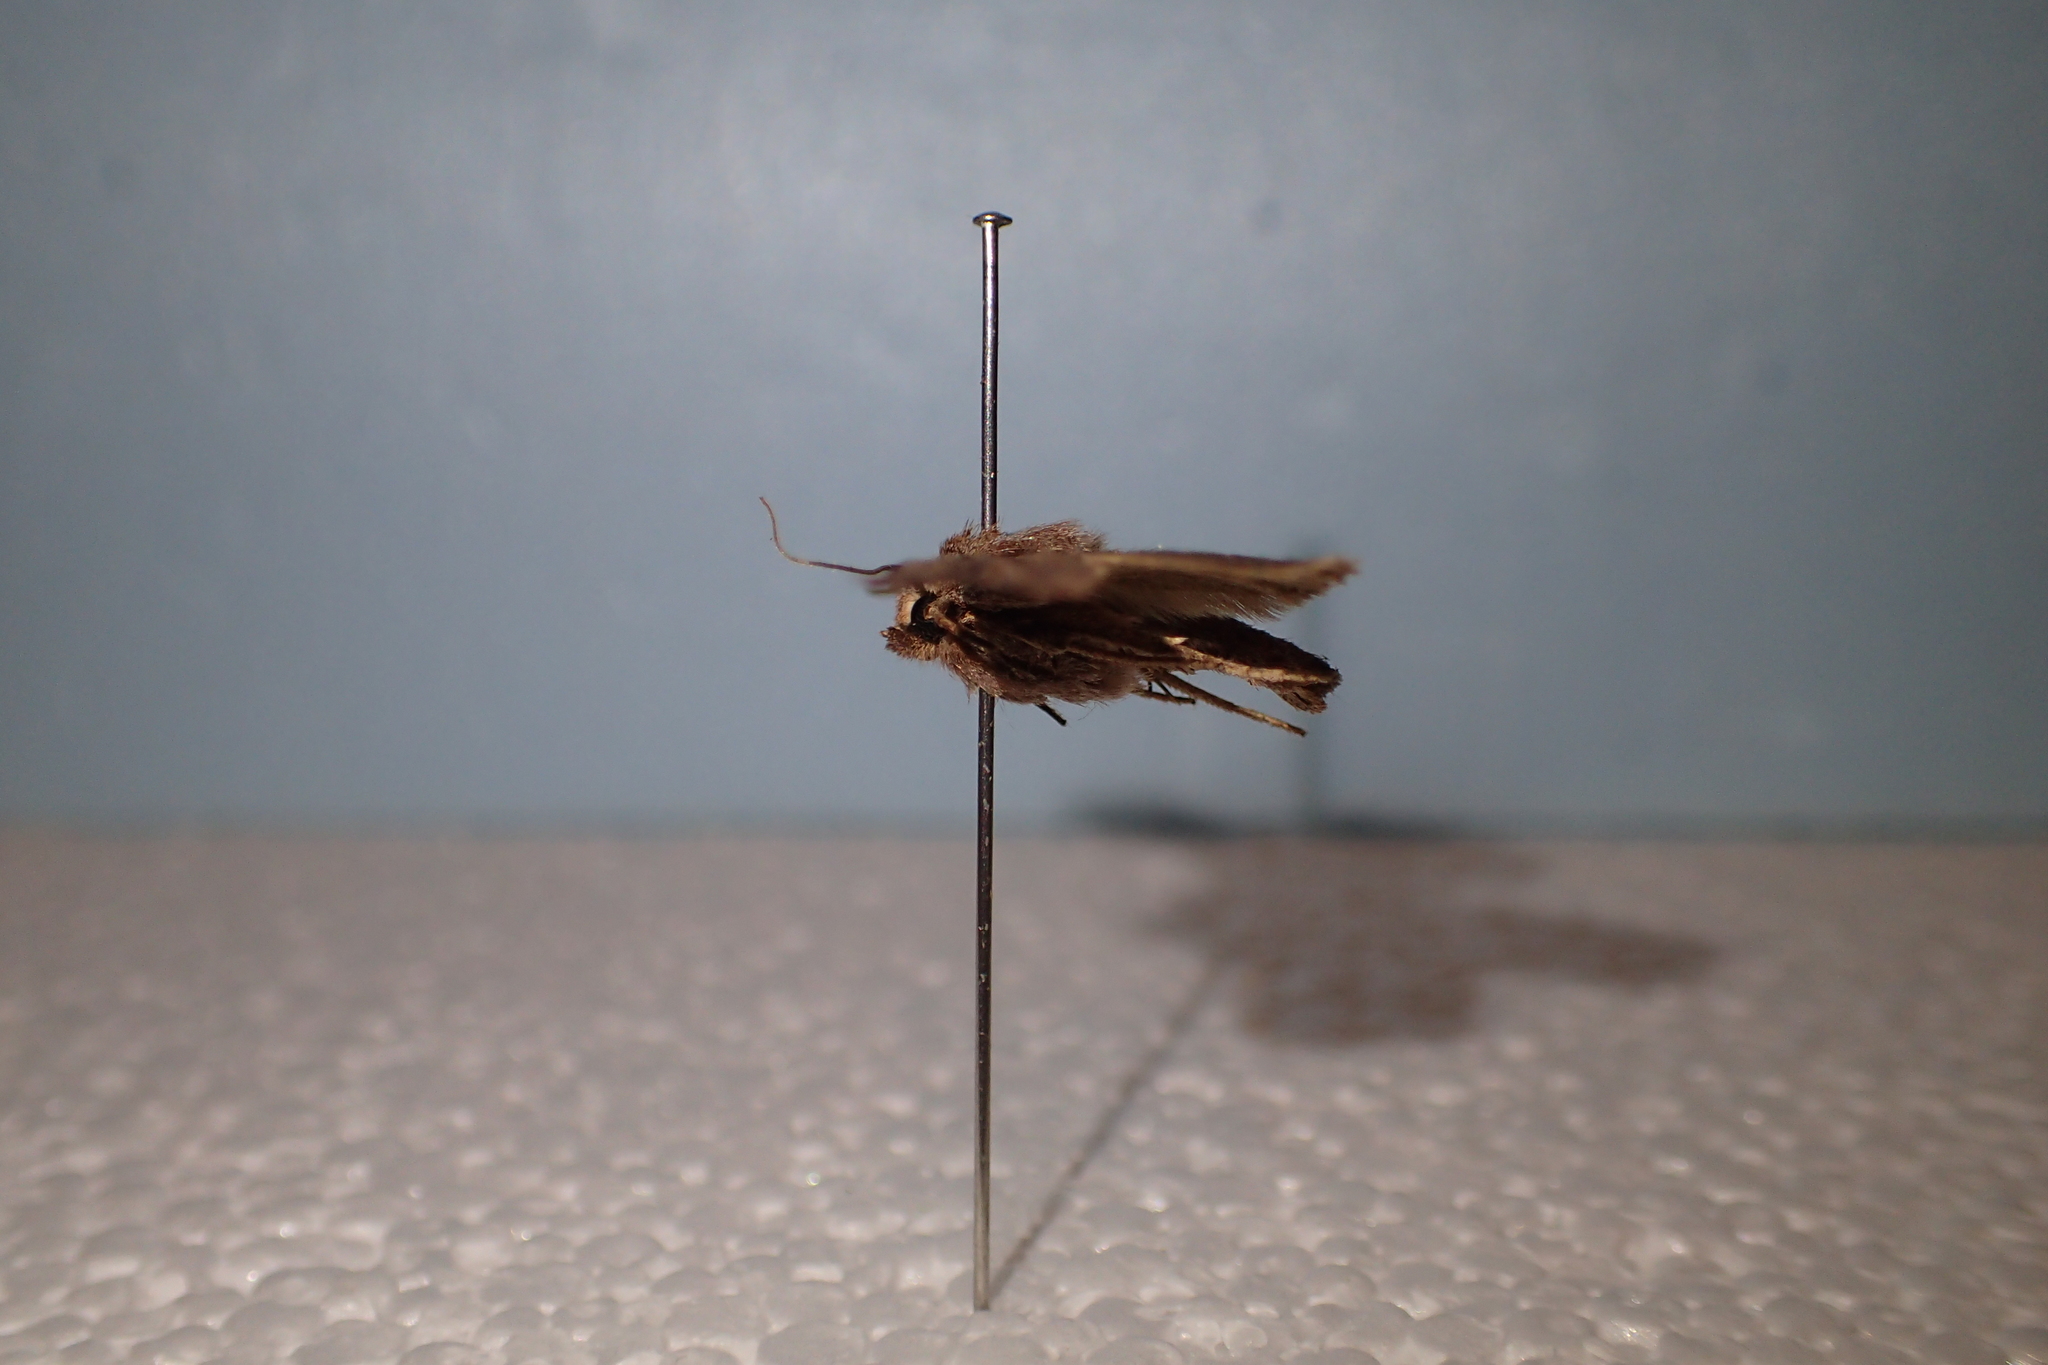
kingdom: Animalia
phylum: Arthropoda
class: Insecta
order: Lepidoptera
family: Noctuidae
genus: Ichneutica
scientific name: Ichneutica atristriga
